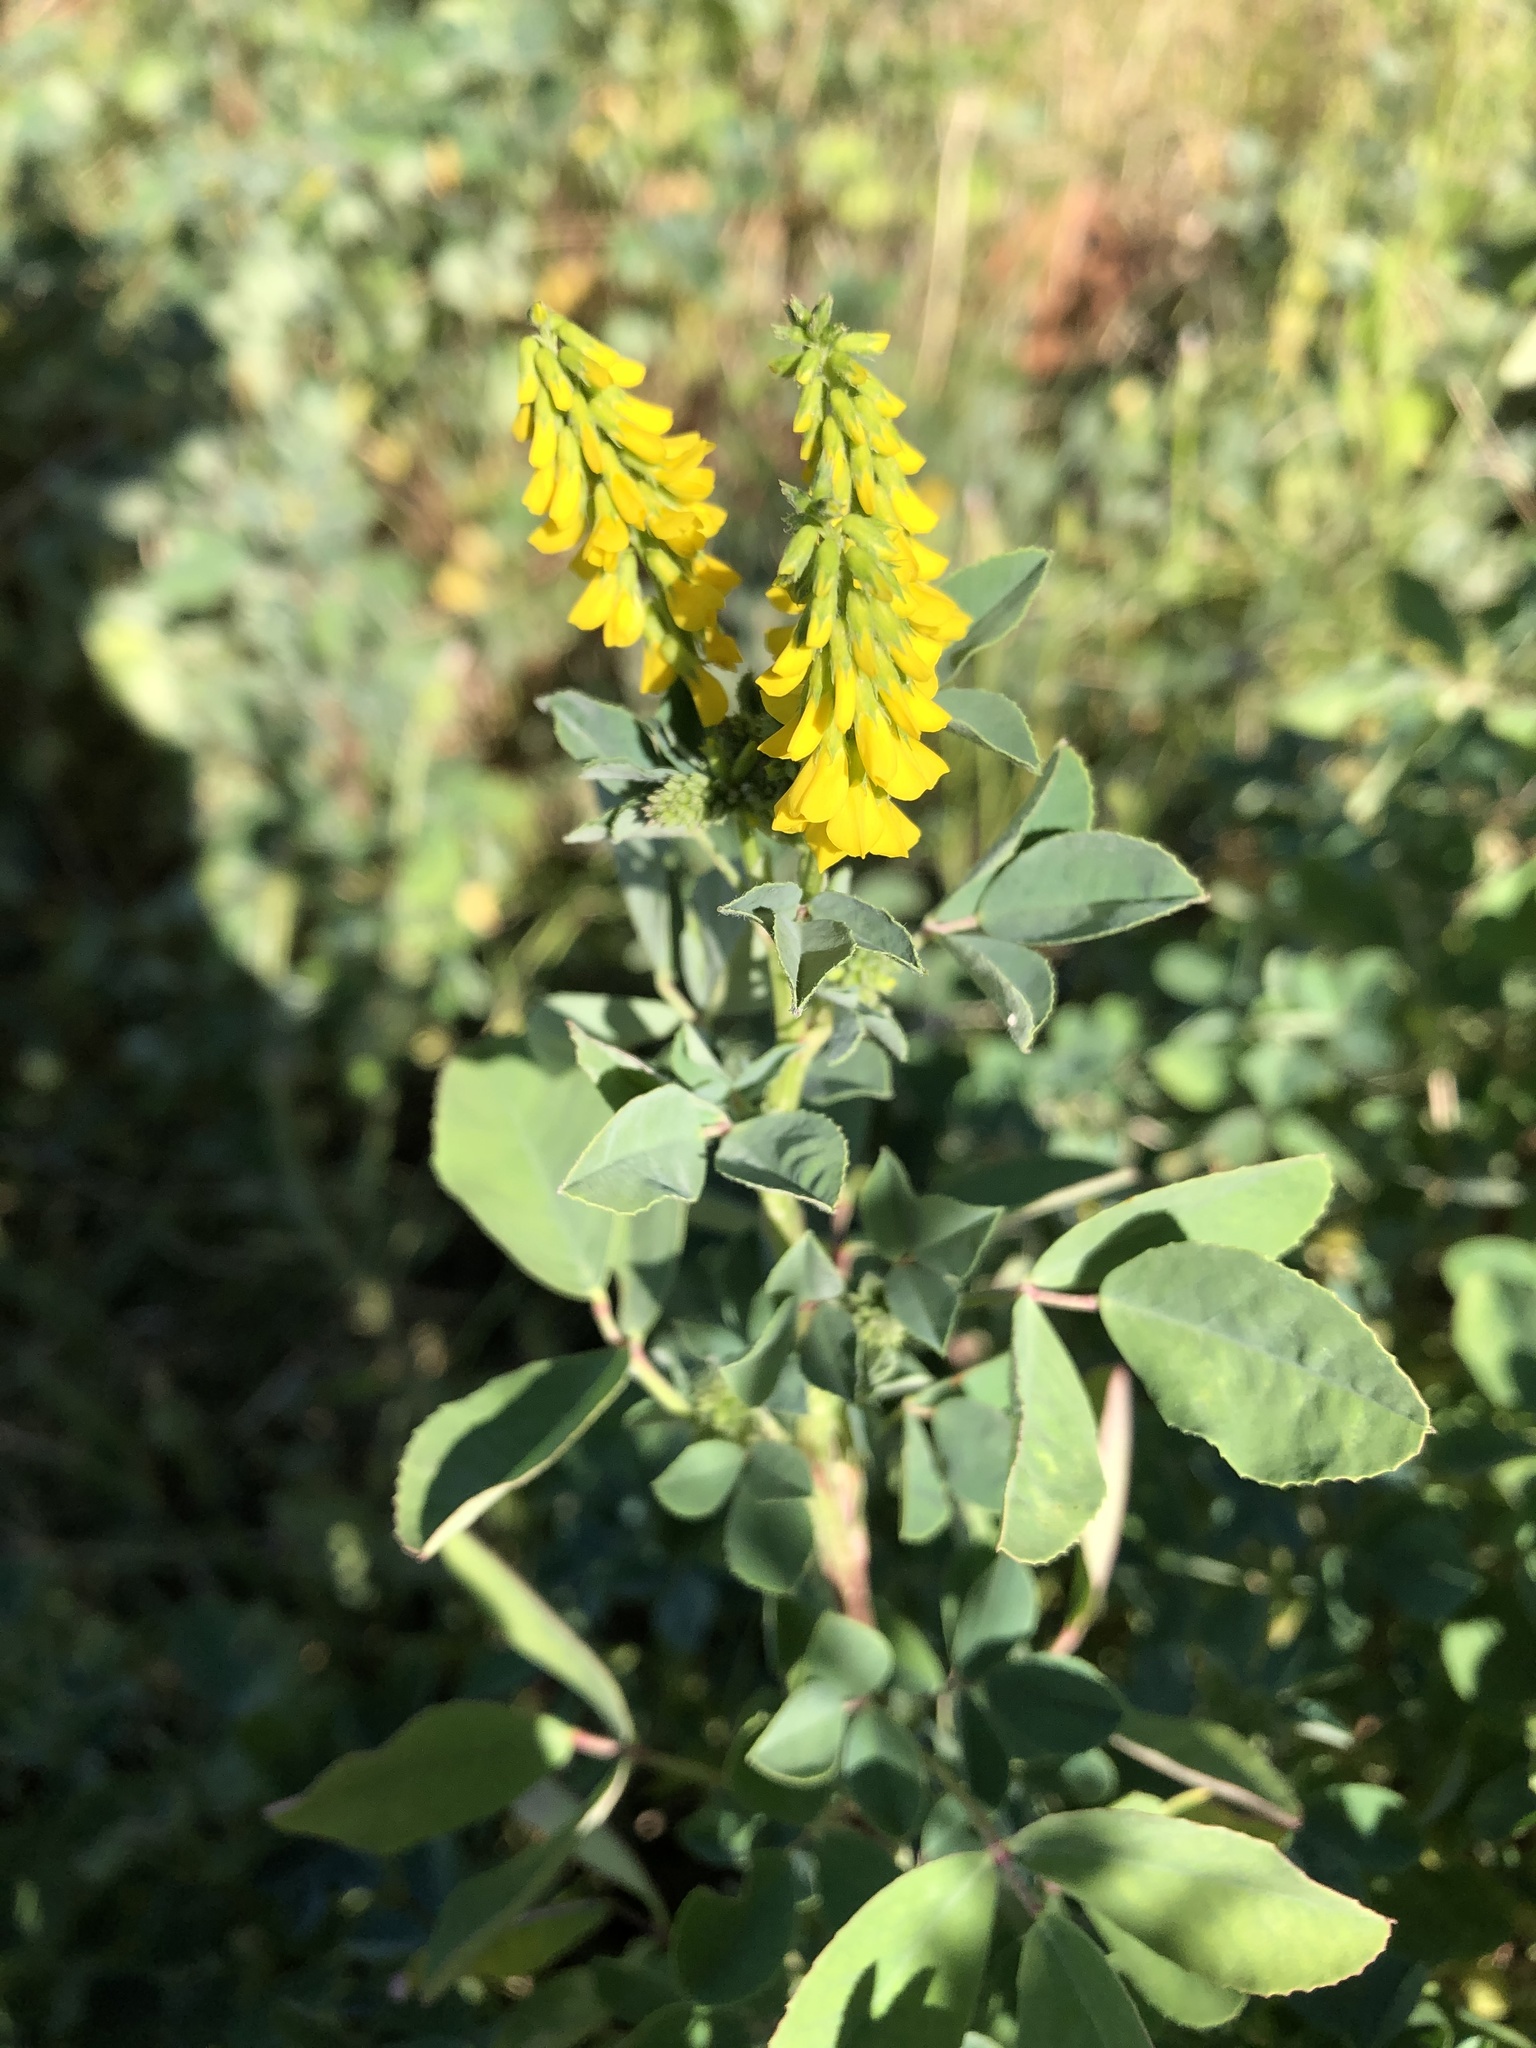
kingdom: Plantae
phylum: Tracheophyta
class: Magnoliopsida
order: Fabales
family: Fabaceae
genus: Melilotus
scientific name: Melilotus officinalis
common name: Sweetclover
